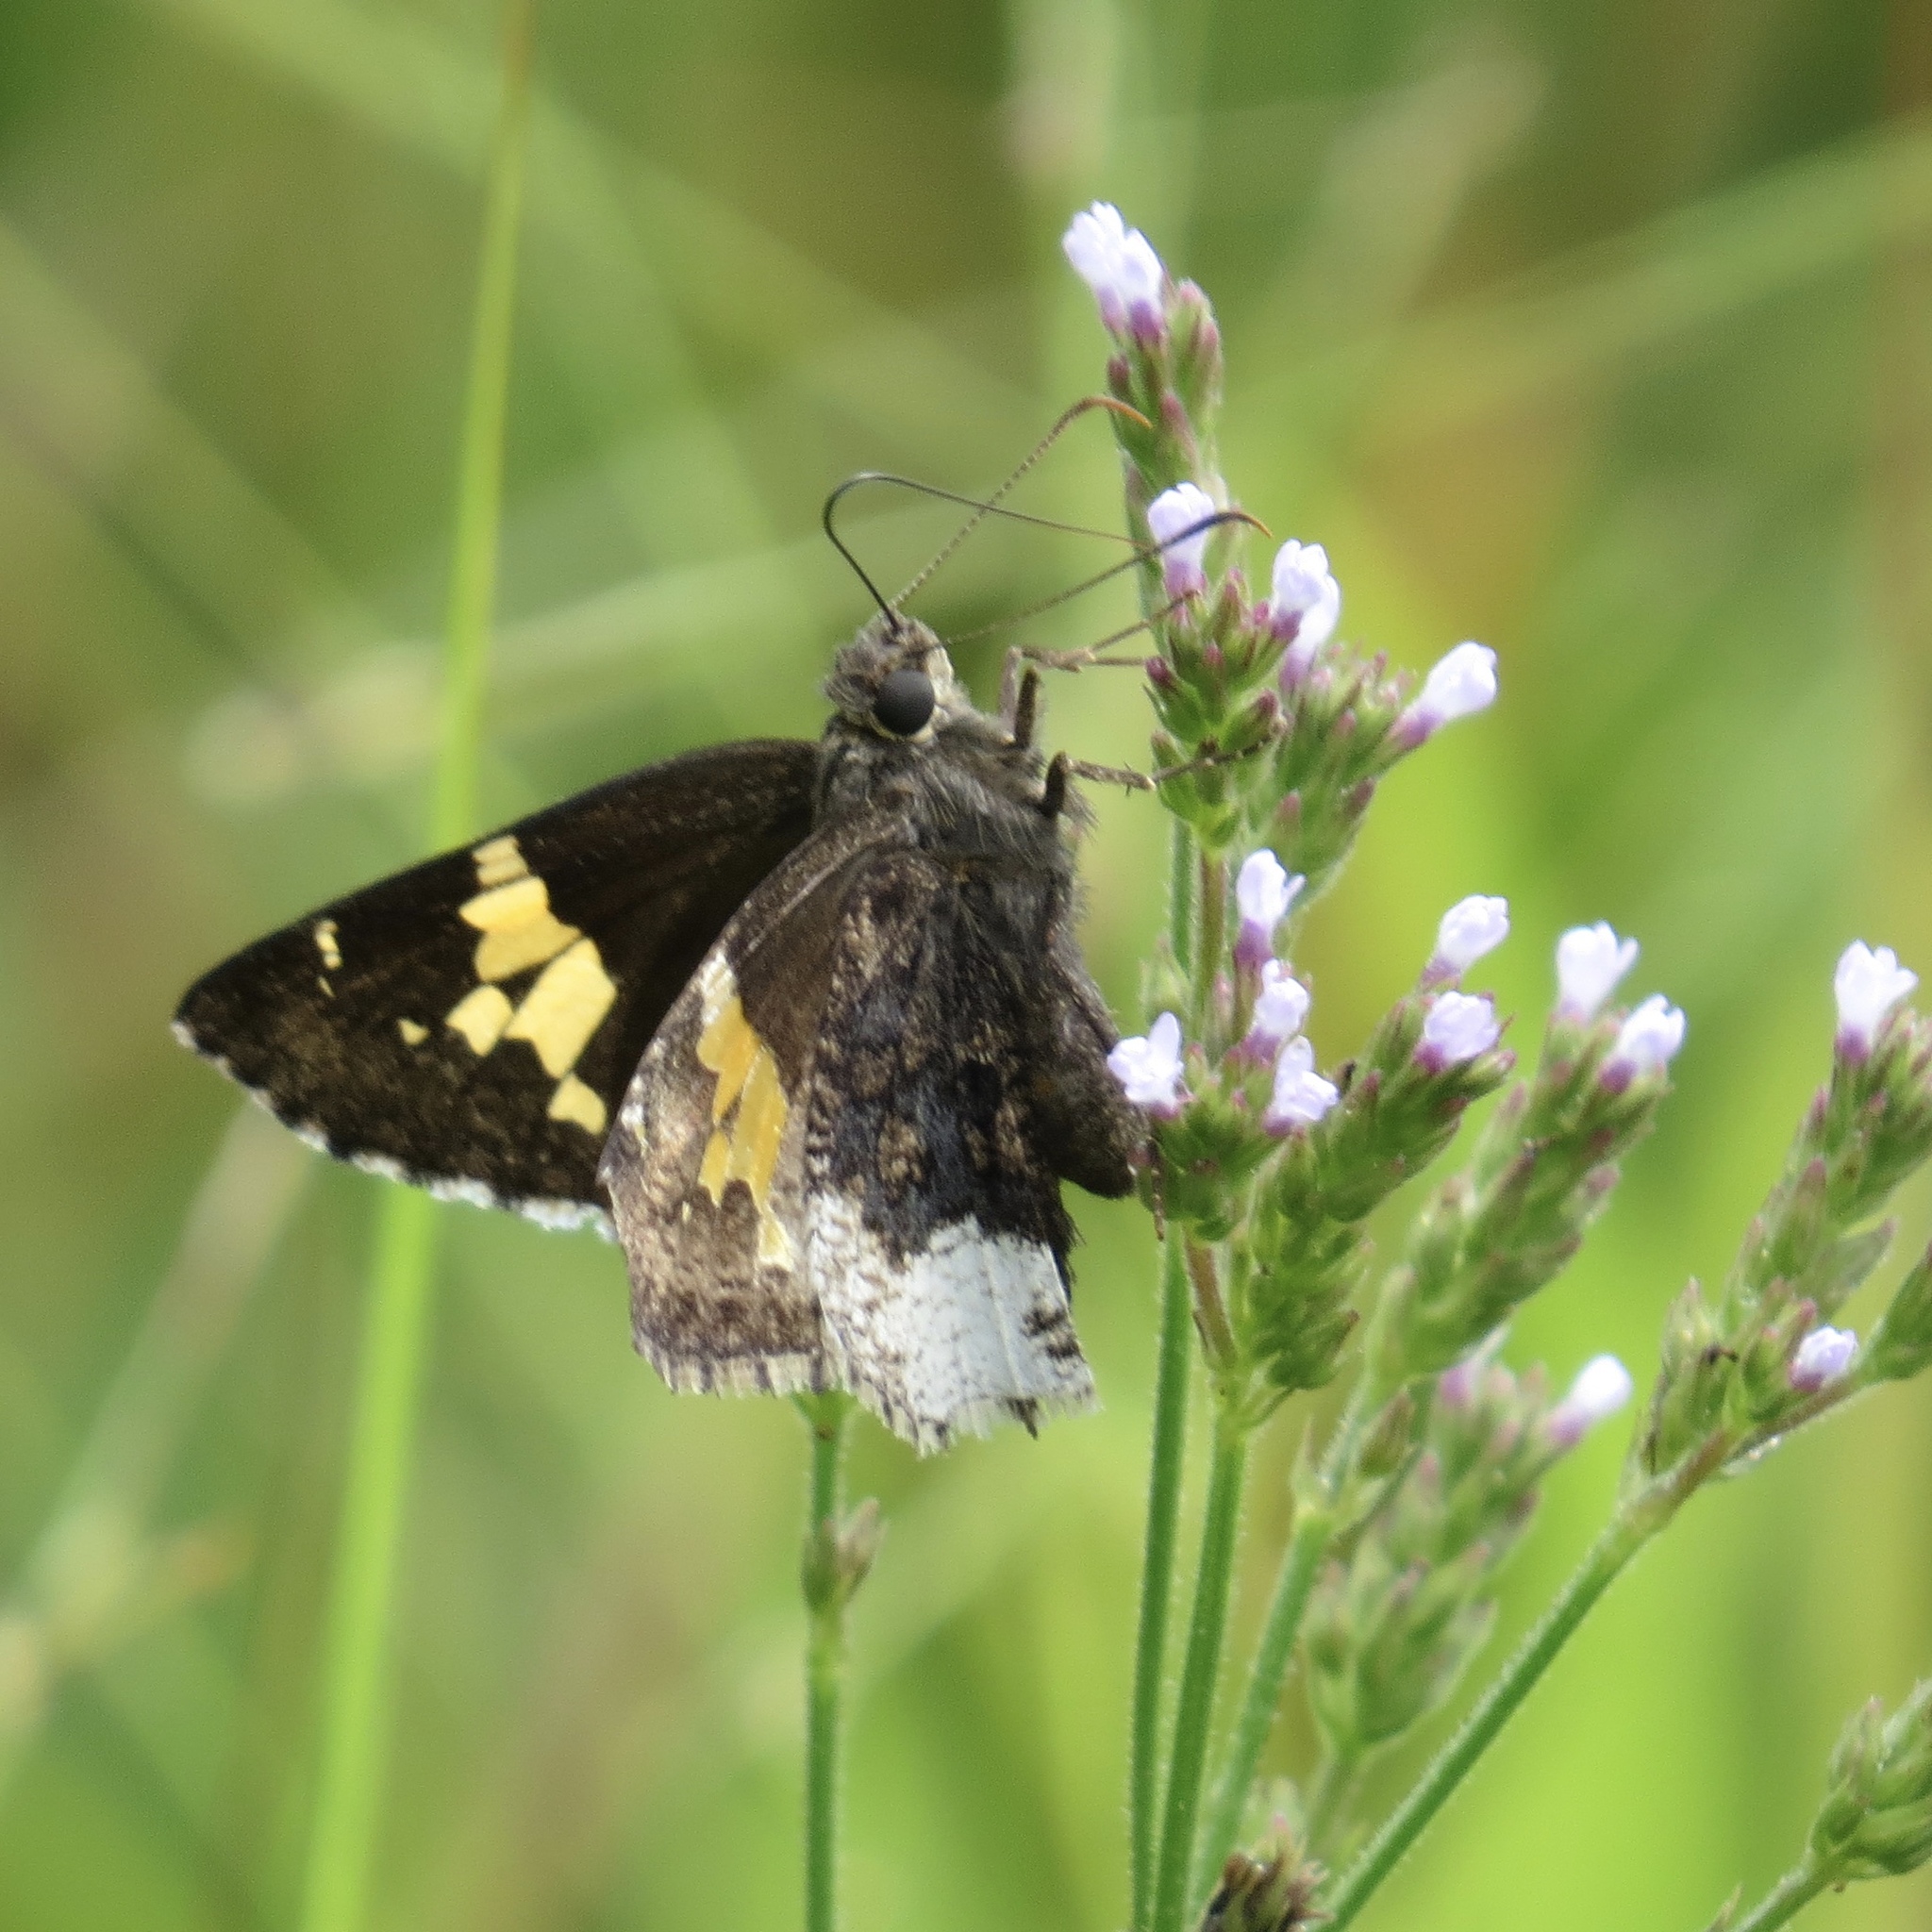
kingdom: Animalia
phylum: Arthropoda
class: Insecta
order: Lepidoptera
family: Hesperiidae
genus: Thorybes
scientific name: Thorybes lyciades
